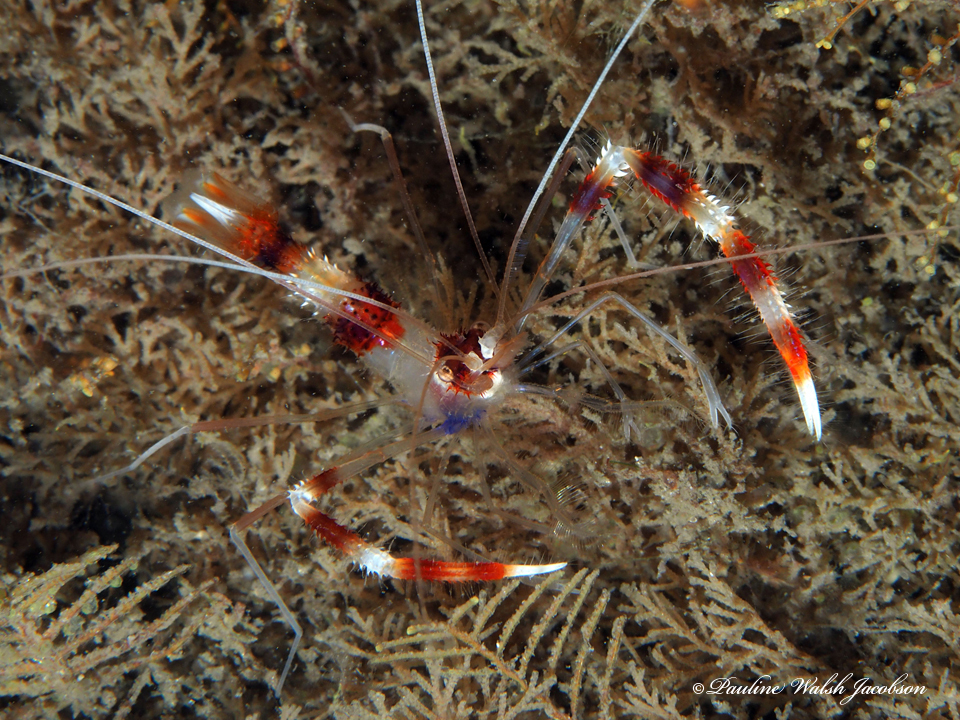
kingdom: Animalia
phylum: Arthropoda
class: Malacostraca
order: Decapoda
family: Stenopodidae
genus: Stenopus
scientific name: Stenopus hispidus
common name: Banded coral shrimp
